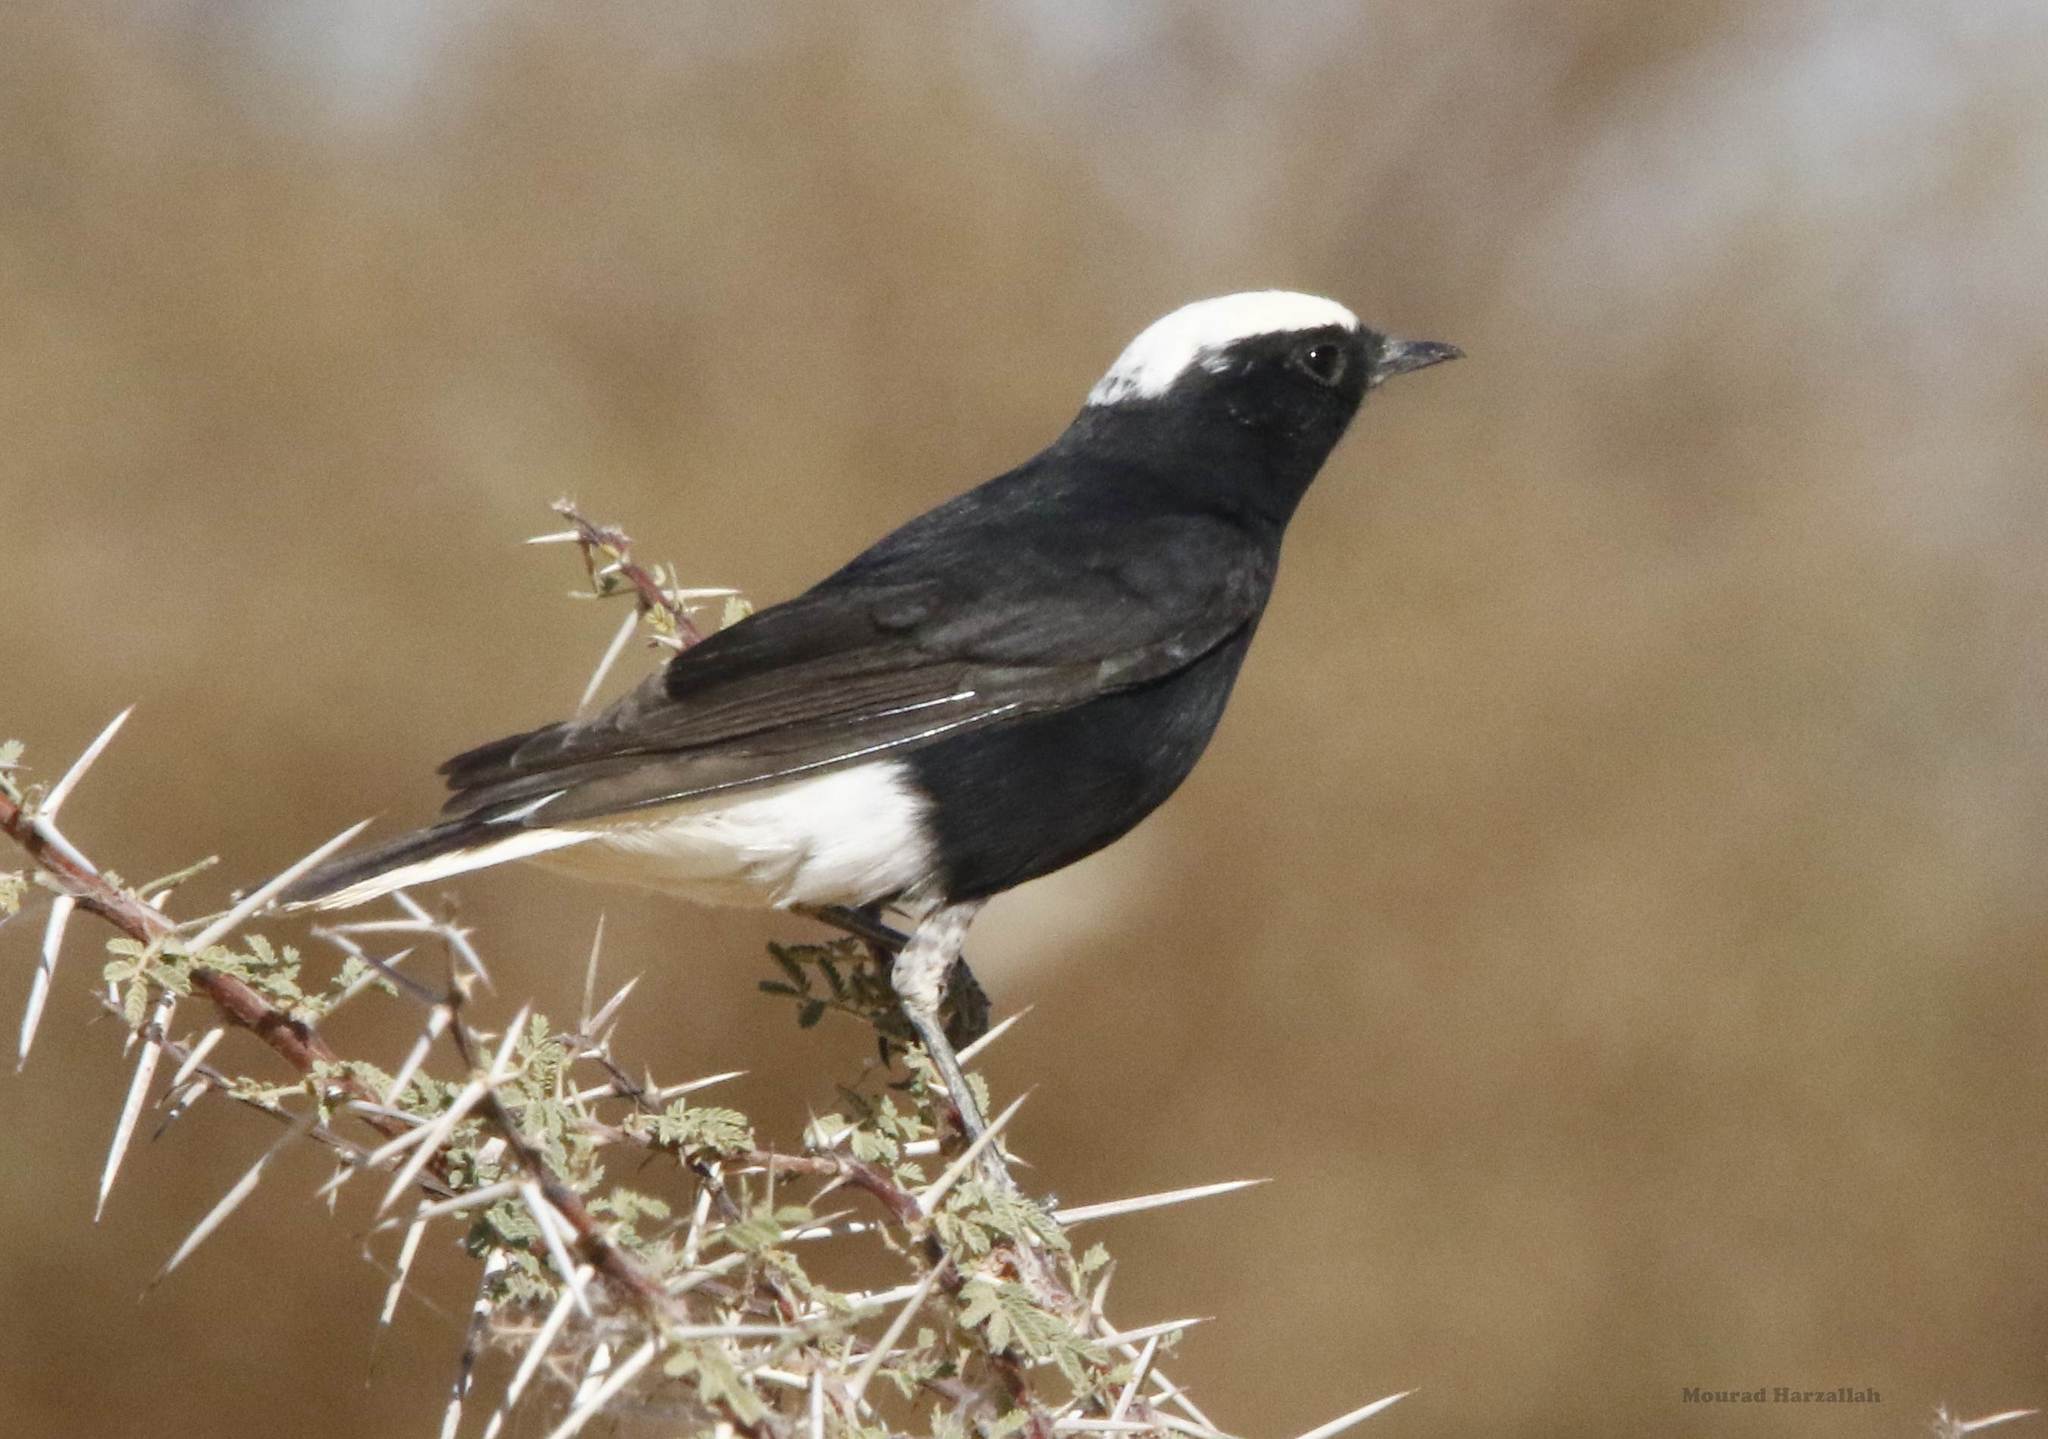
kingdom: Animalia
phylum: Chordata
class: Aves
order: Passeriformes
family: Muscicapidae
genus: Oenanthe
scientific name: Oenanthe leucopyga
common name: White-crowned wheatear
